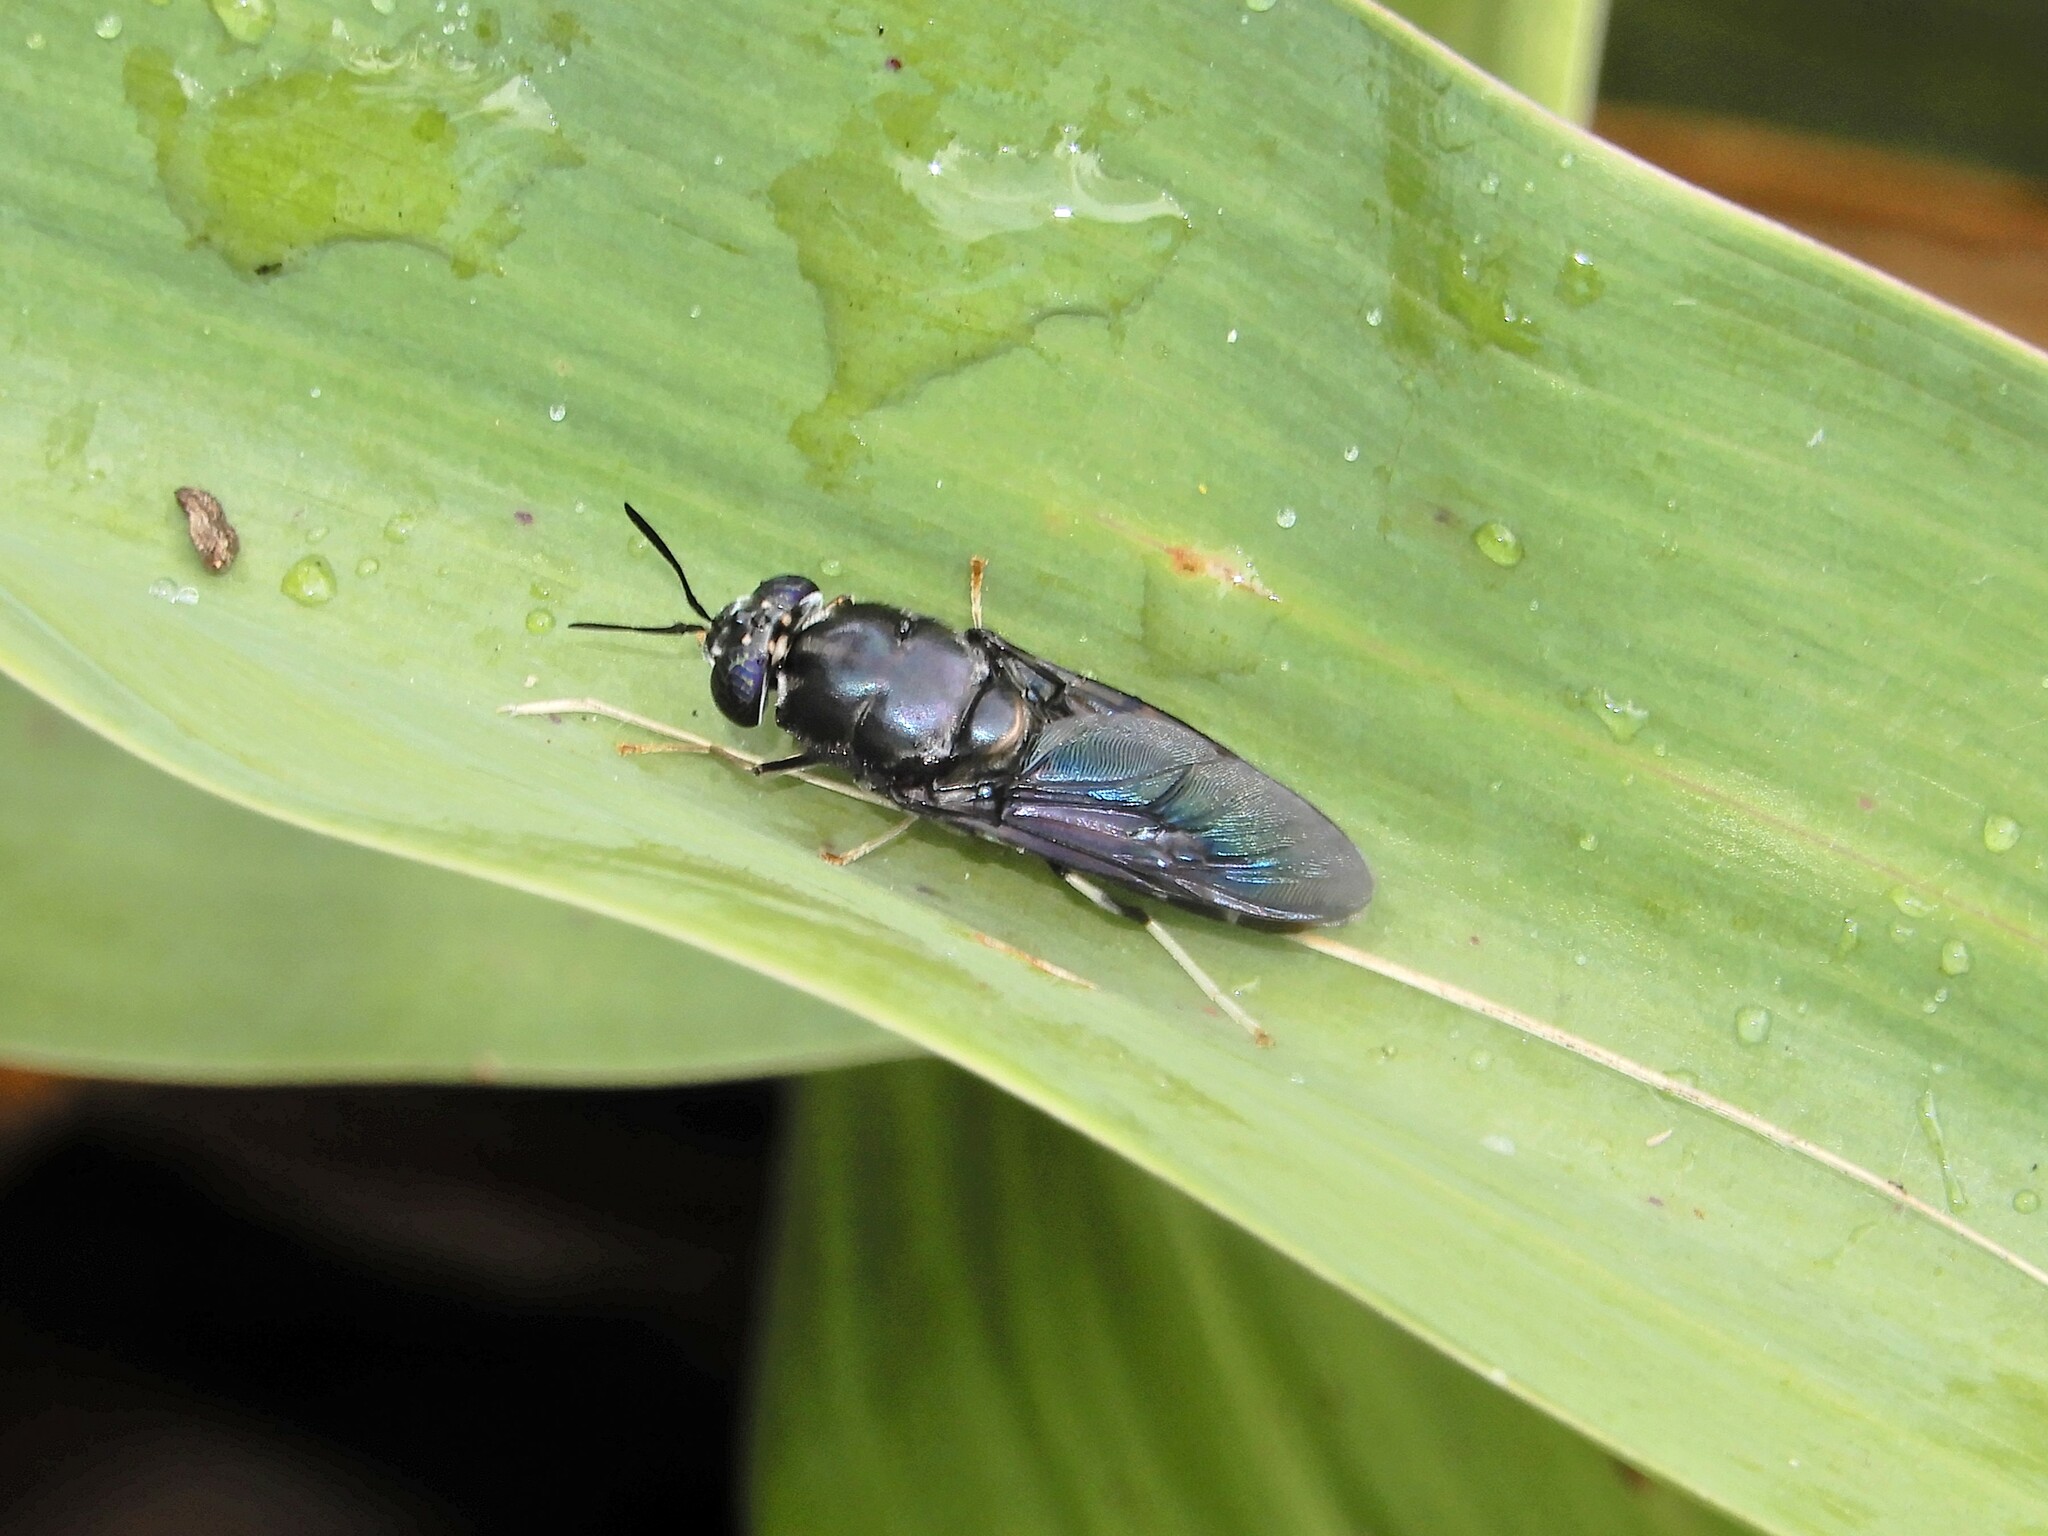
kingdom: Animalia
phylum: Arthropoda
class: Insecta
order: Diptera
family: Stratiomyidae
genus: Hermetia
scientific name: Hermetia illucens
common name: Black soldier fly
